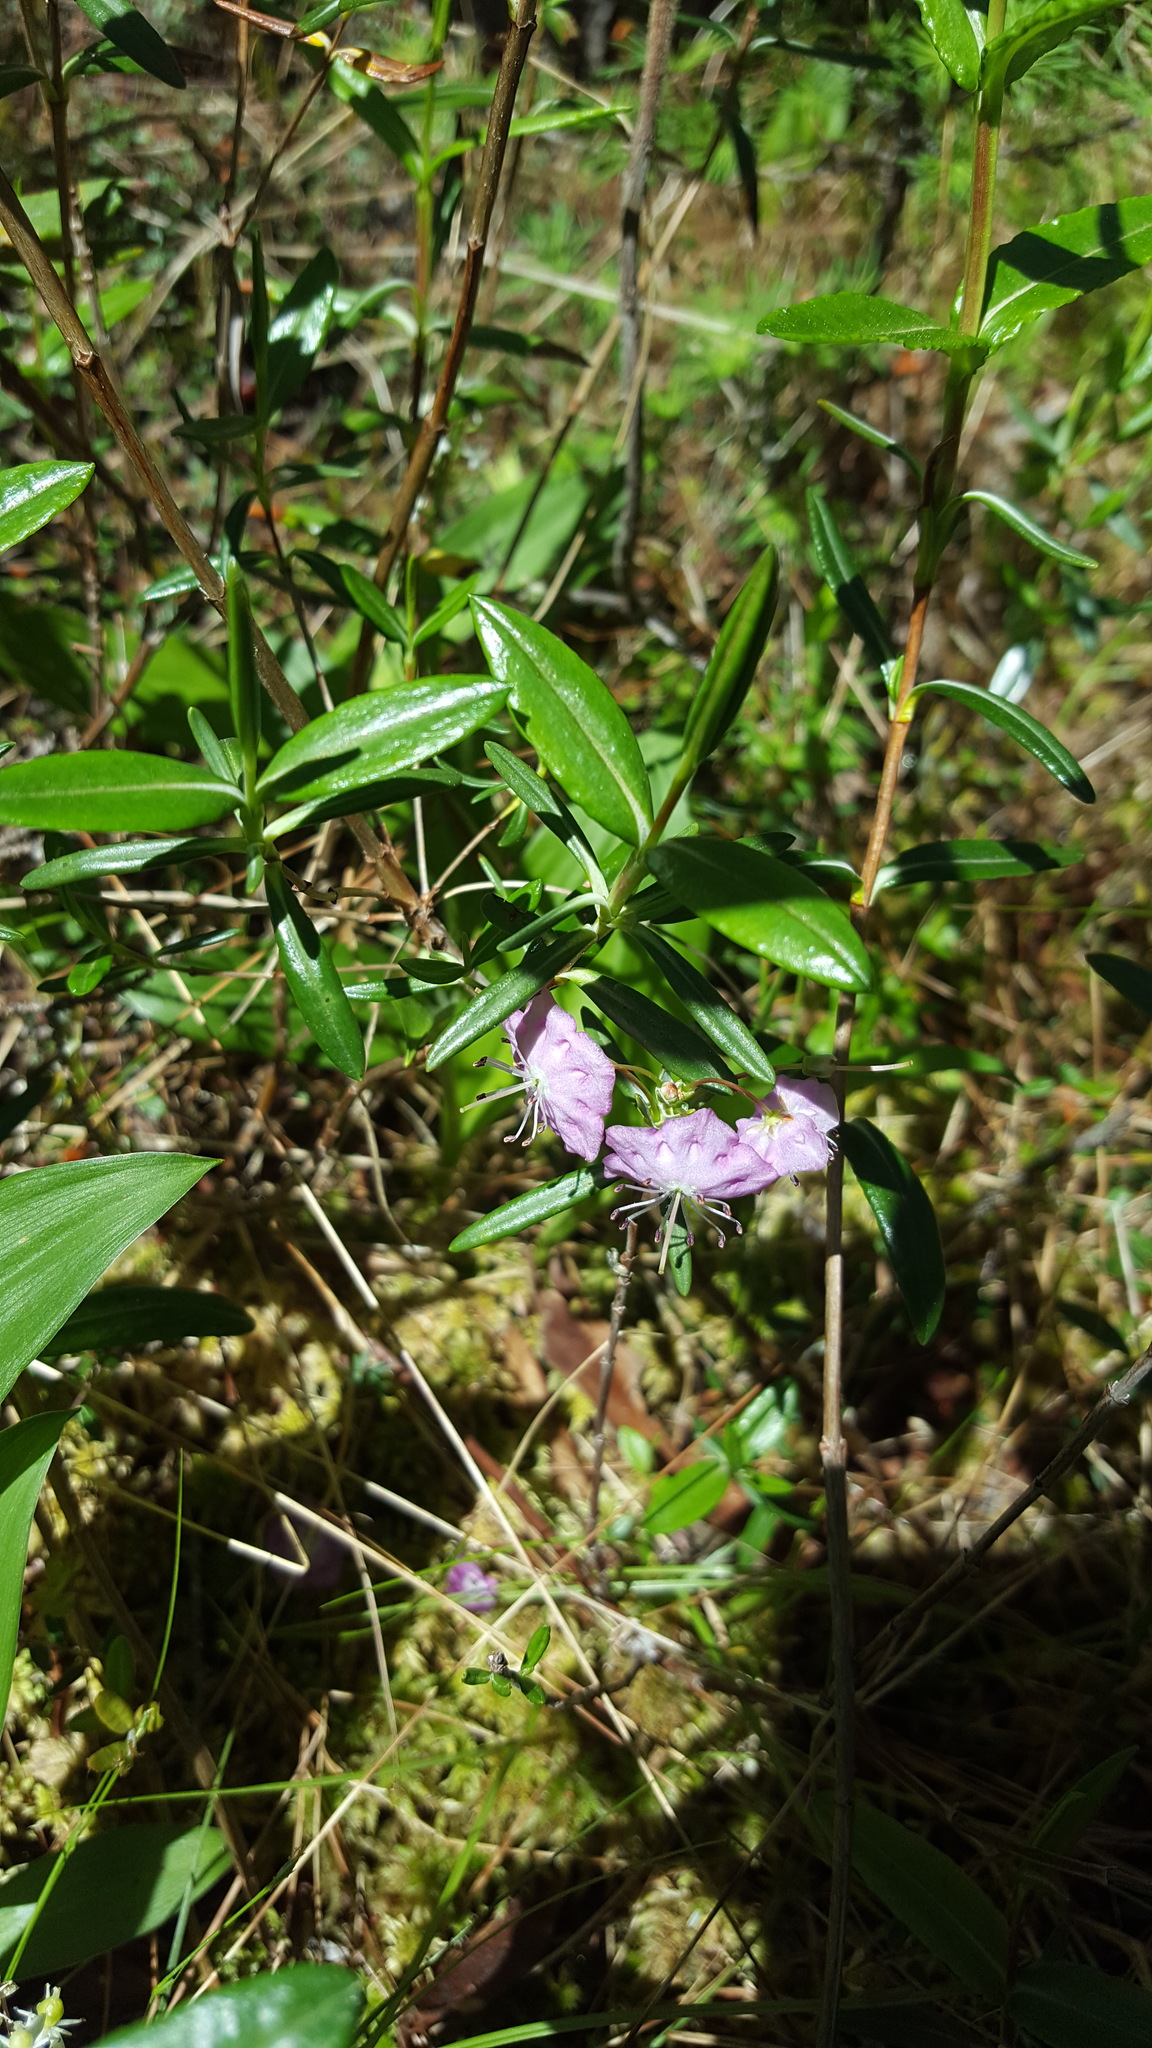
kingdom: Plantae
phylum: Tracheophyta
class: Magnoliopsida
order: Ericales
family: Ericaceae
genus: Kalmia
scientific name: Kalmia polifolia
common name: Bog-laurel
